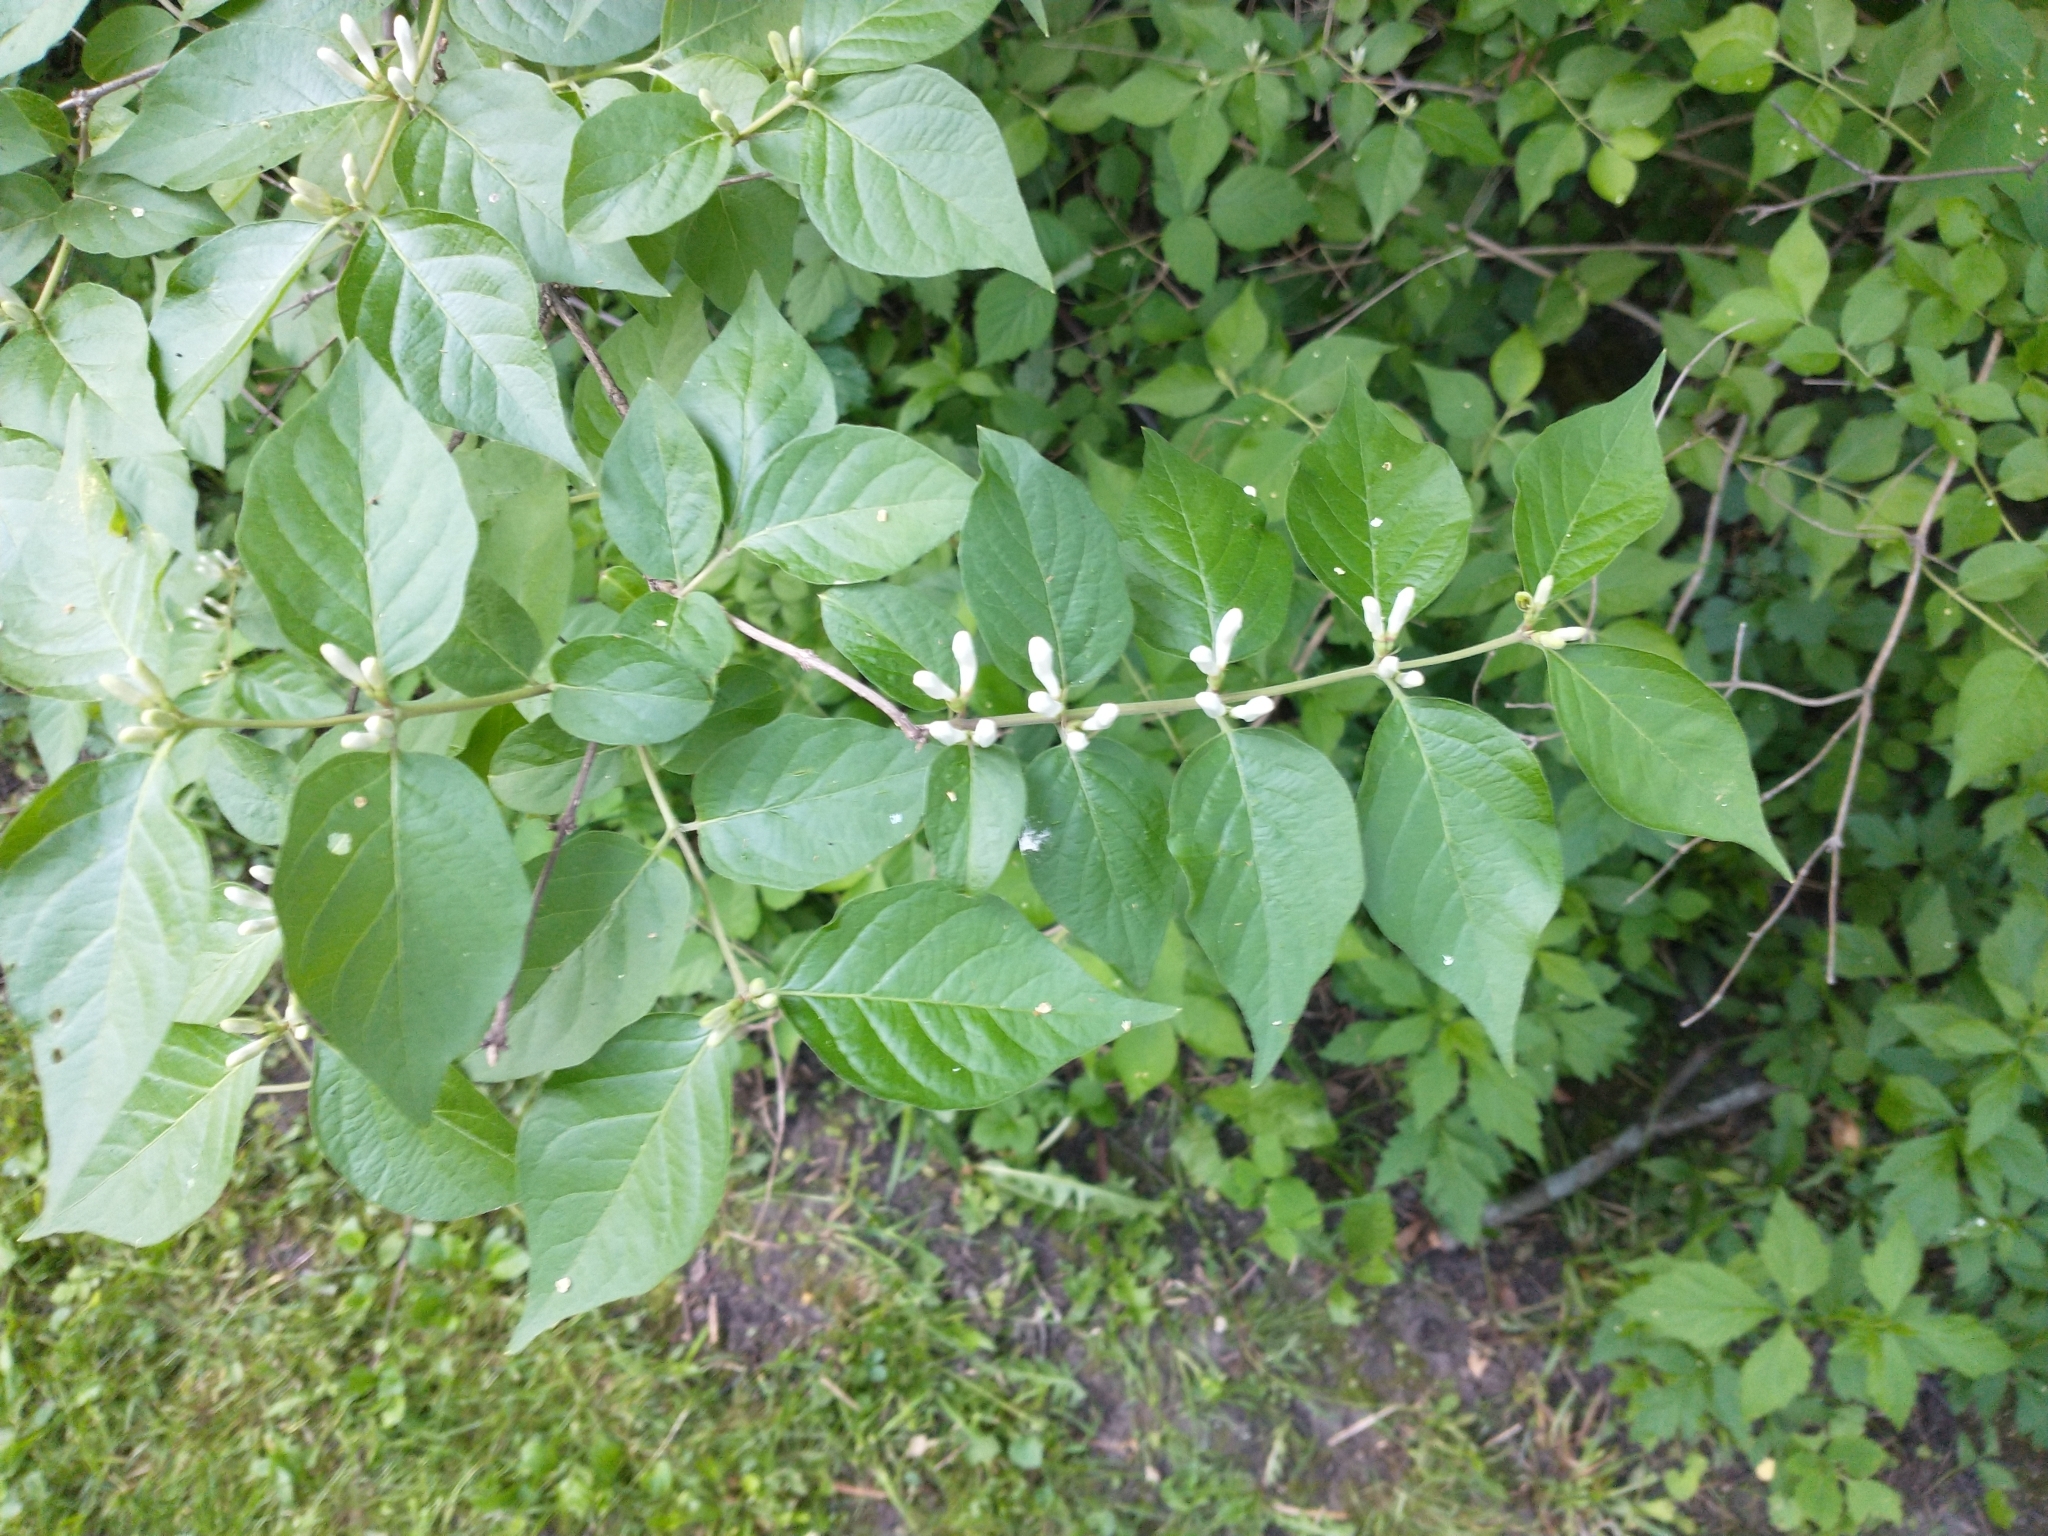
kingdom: Plantae
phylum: Tracheophyta
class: Magnoliopsida
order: Dipsacales
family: Caprifoliaceae
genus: Lonicera
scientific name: Lonicera maackii
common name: Amur honeysuckle
